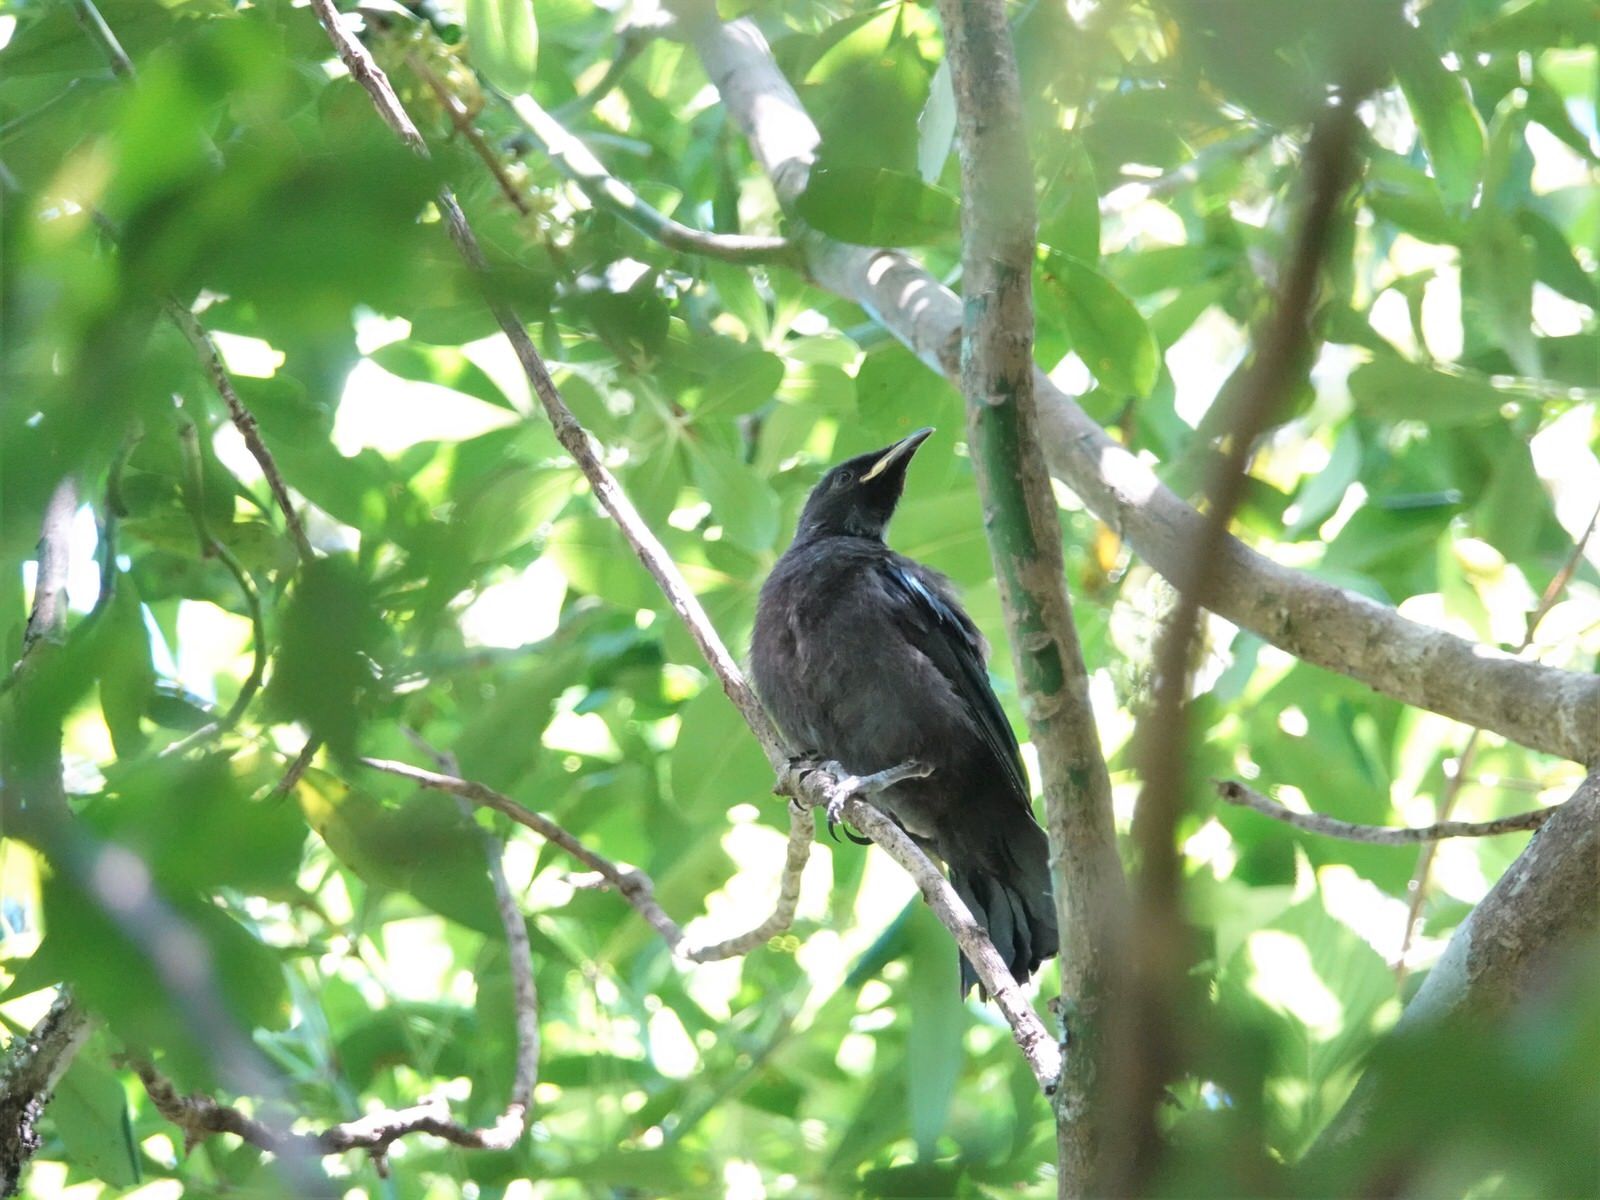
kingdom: Animalia
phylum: Chordata
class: Aves
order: Passeriformes
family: Meliphagidae
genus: Prosthemadera
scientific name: Prosthemadera novaeseelandiae
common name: Tui
